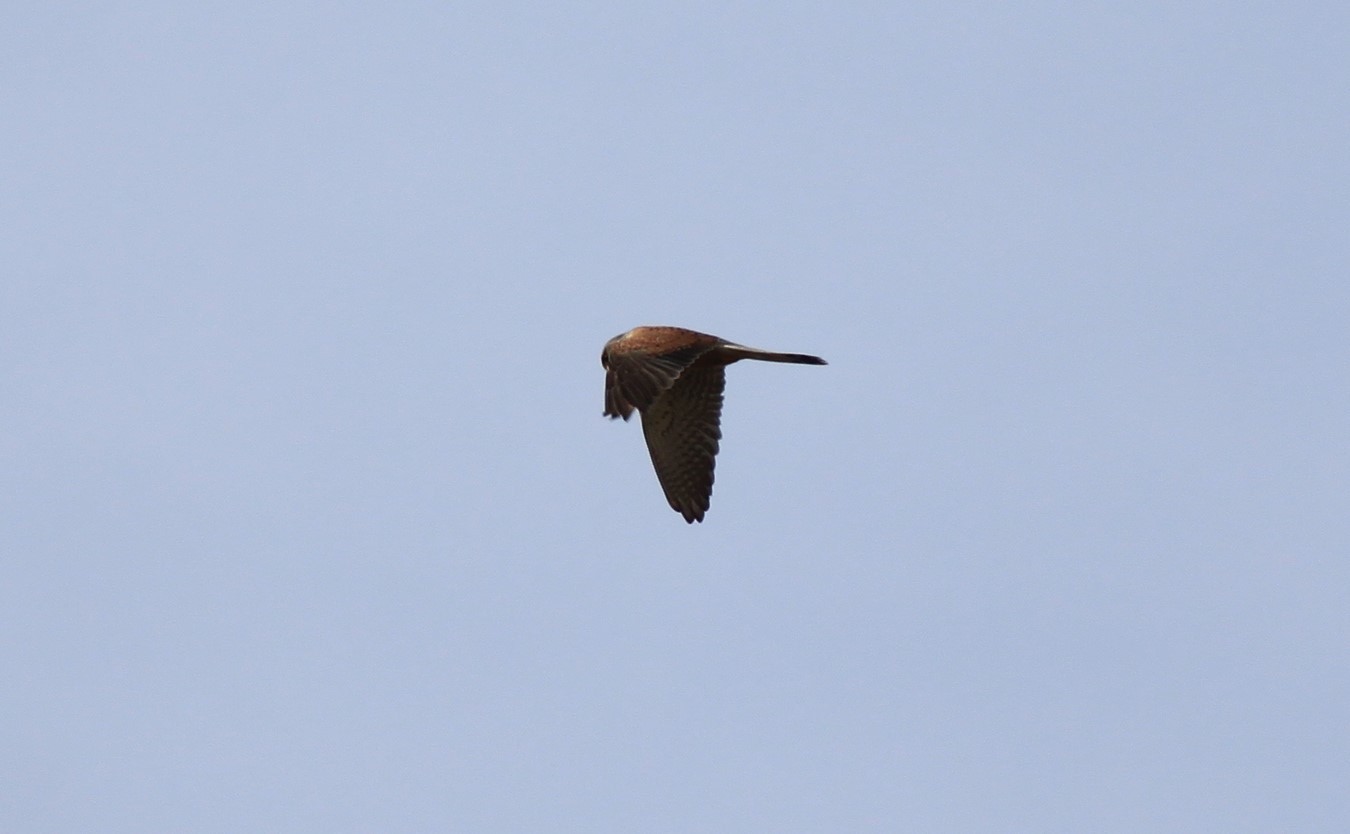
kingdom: Animalia
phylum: Chordata
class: Aves
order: Falconiformes
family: Falconidae
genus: Falco
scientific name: Falco tinnunculus
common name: Common kestrel
